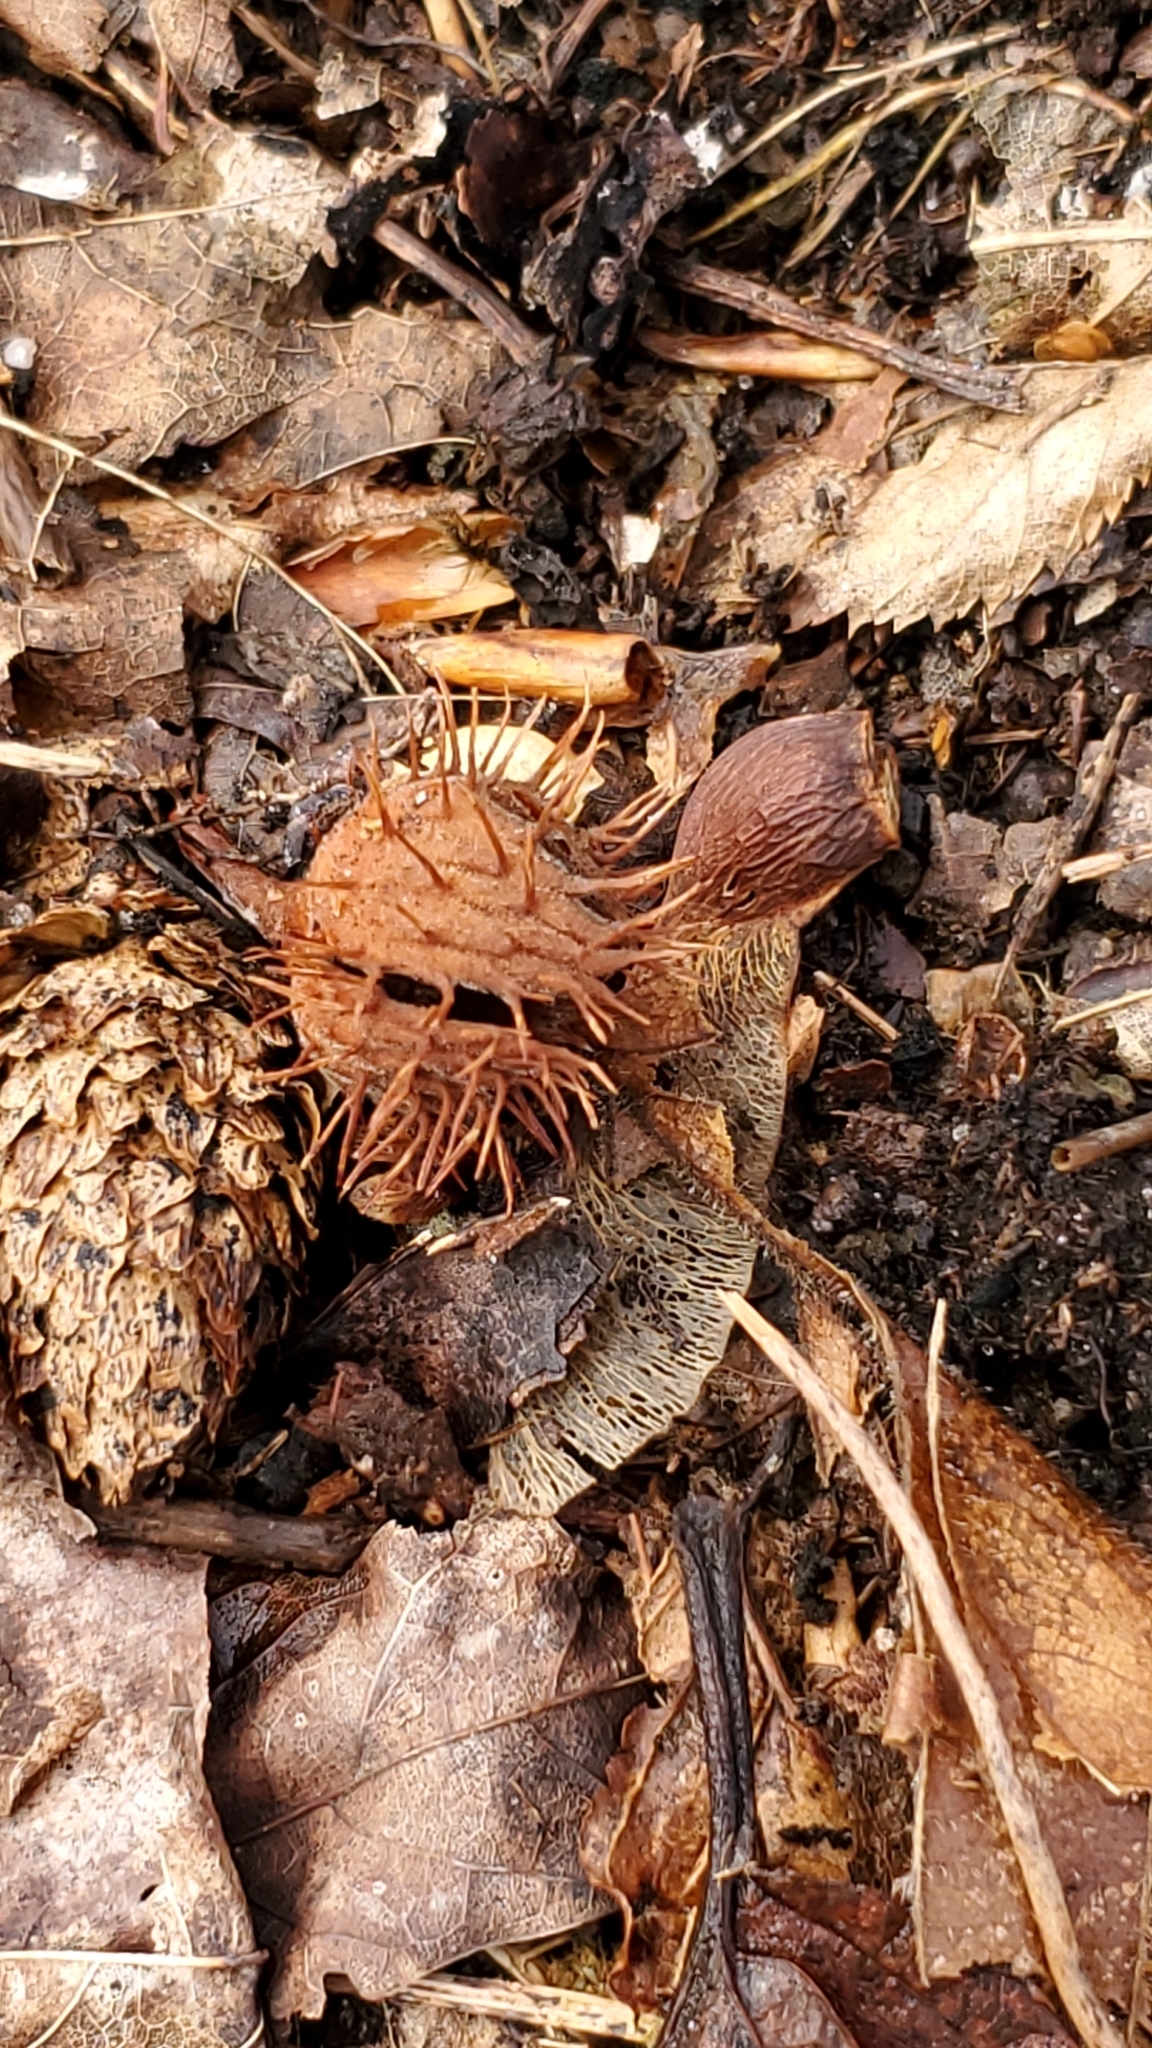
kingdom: Plantae
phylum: Tracheophyta
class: Magnoliopsida
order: Fagales
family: Fagaceae
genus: Fagus
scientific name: Fagus grandifolia
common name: American beech
